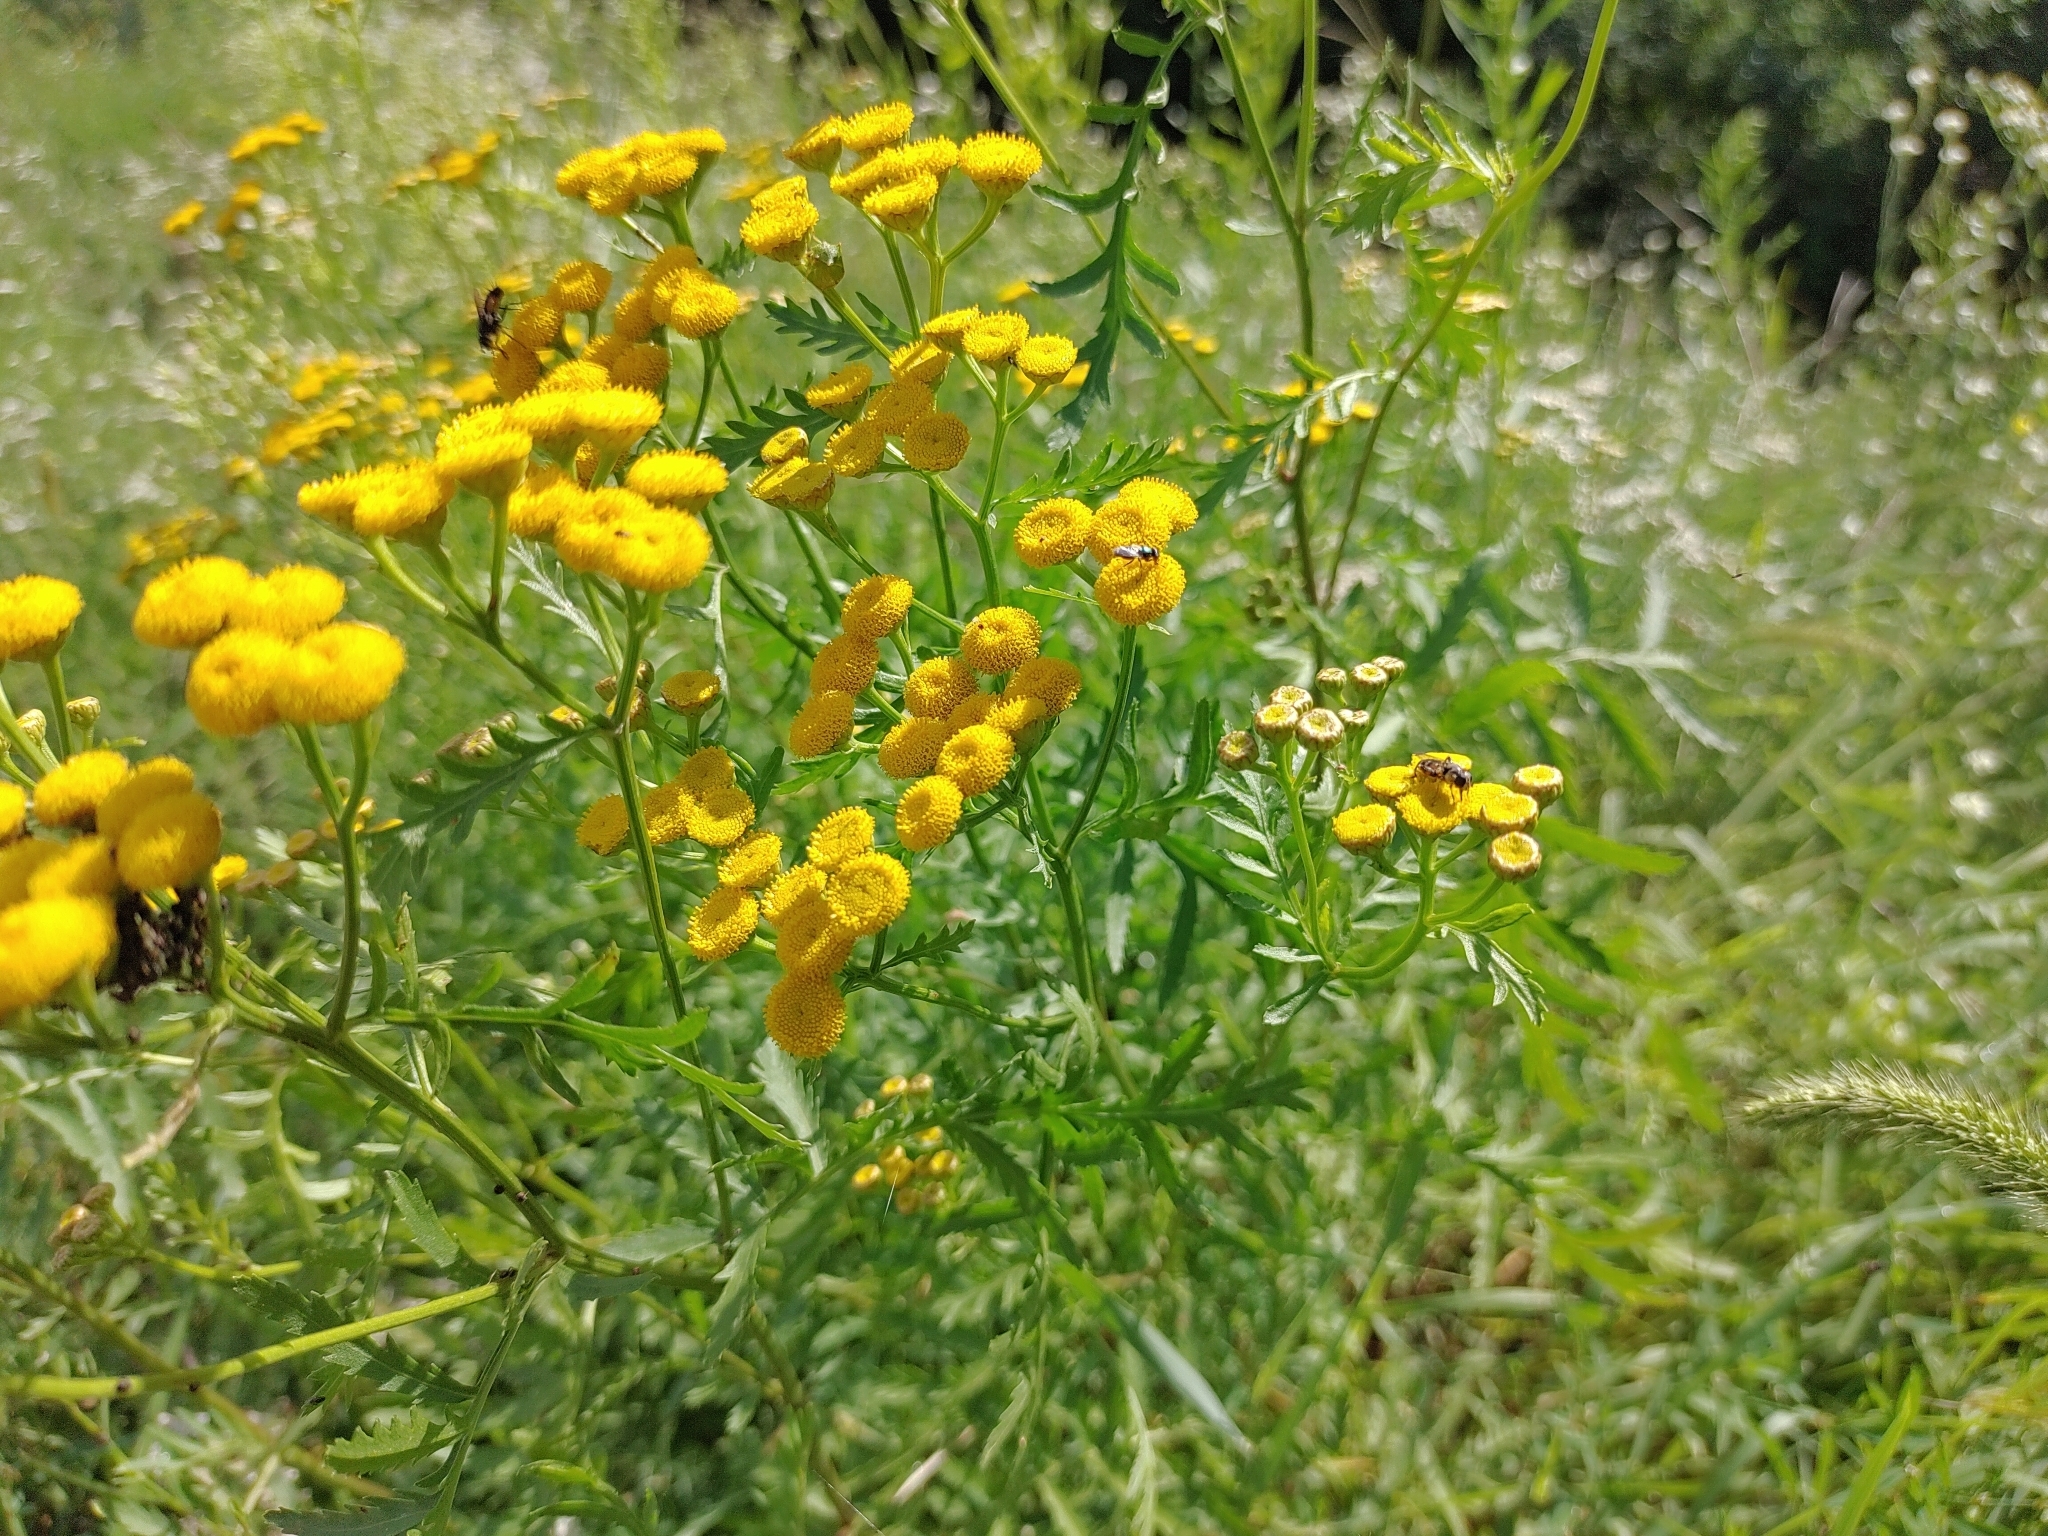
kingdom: Plantae
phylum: Tracheophyta
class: Magnoliopsida
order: Asterales
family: Asteraceae
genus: Tanacetum
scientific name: Tanacetum vulgare
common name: Common tansy
